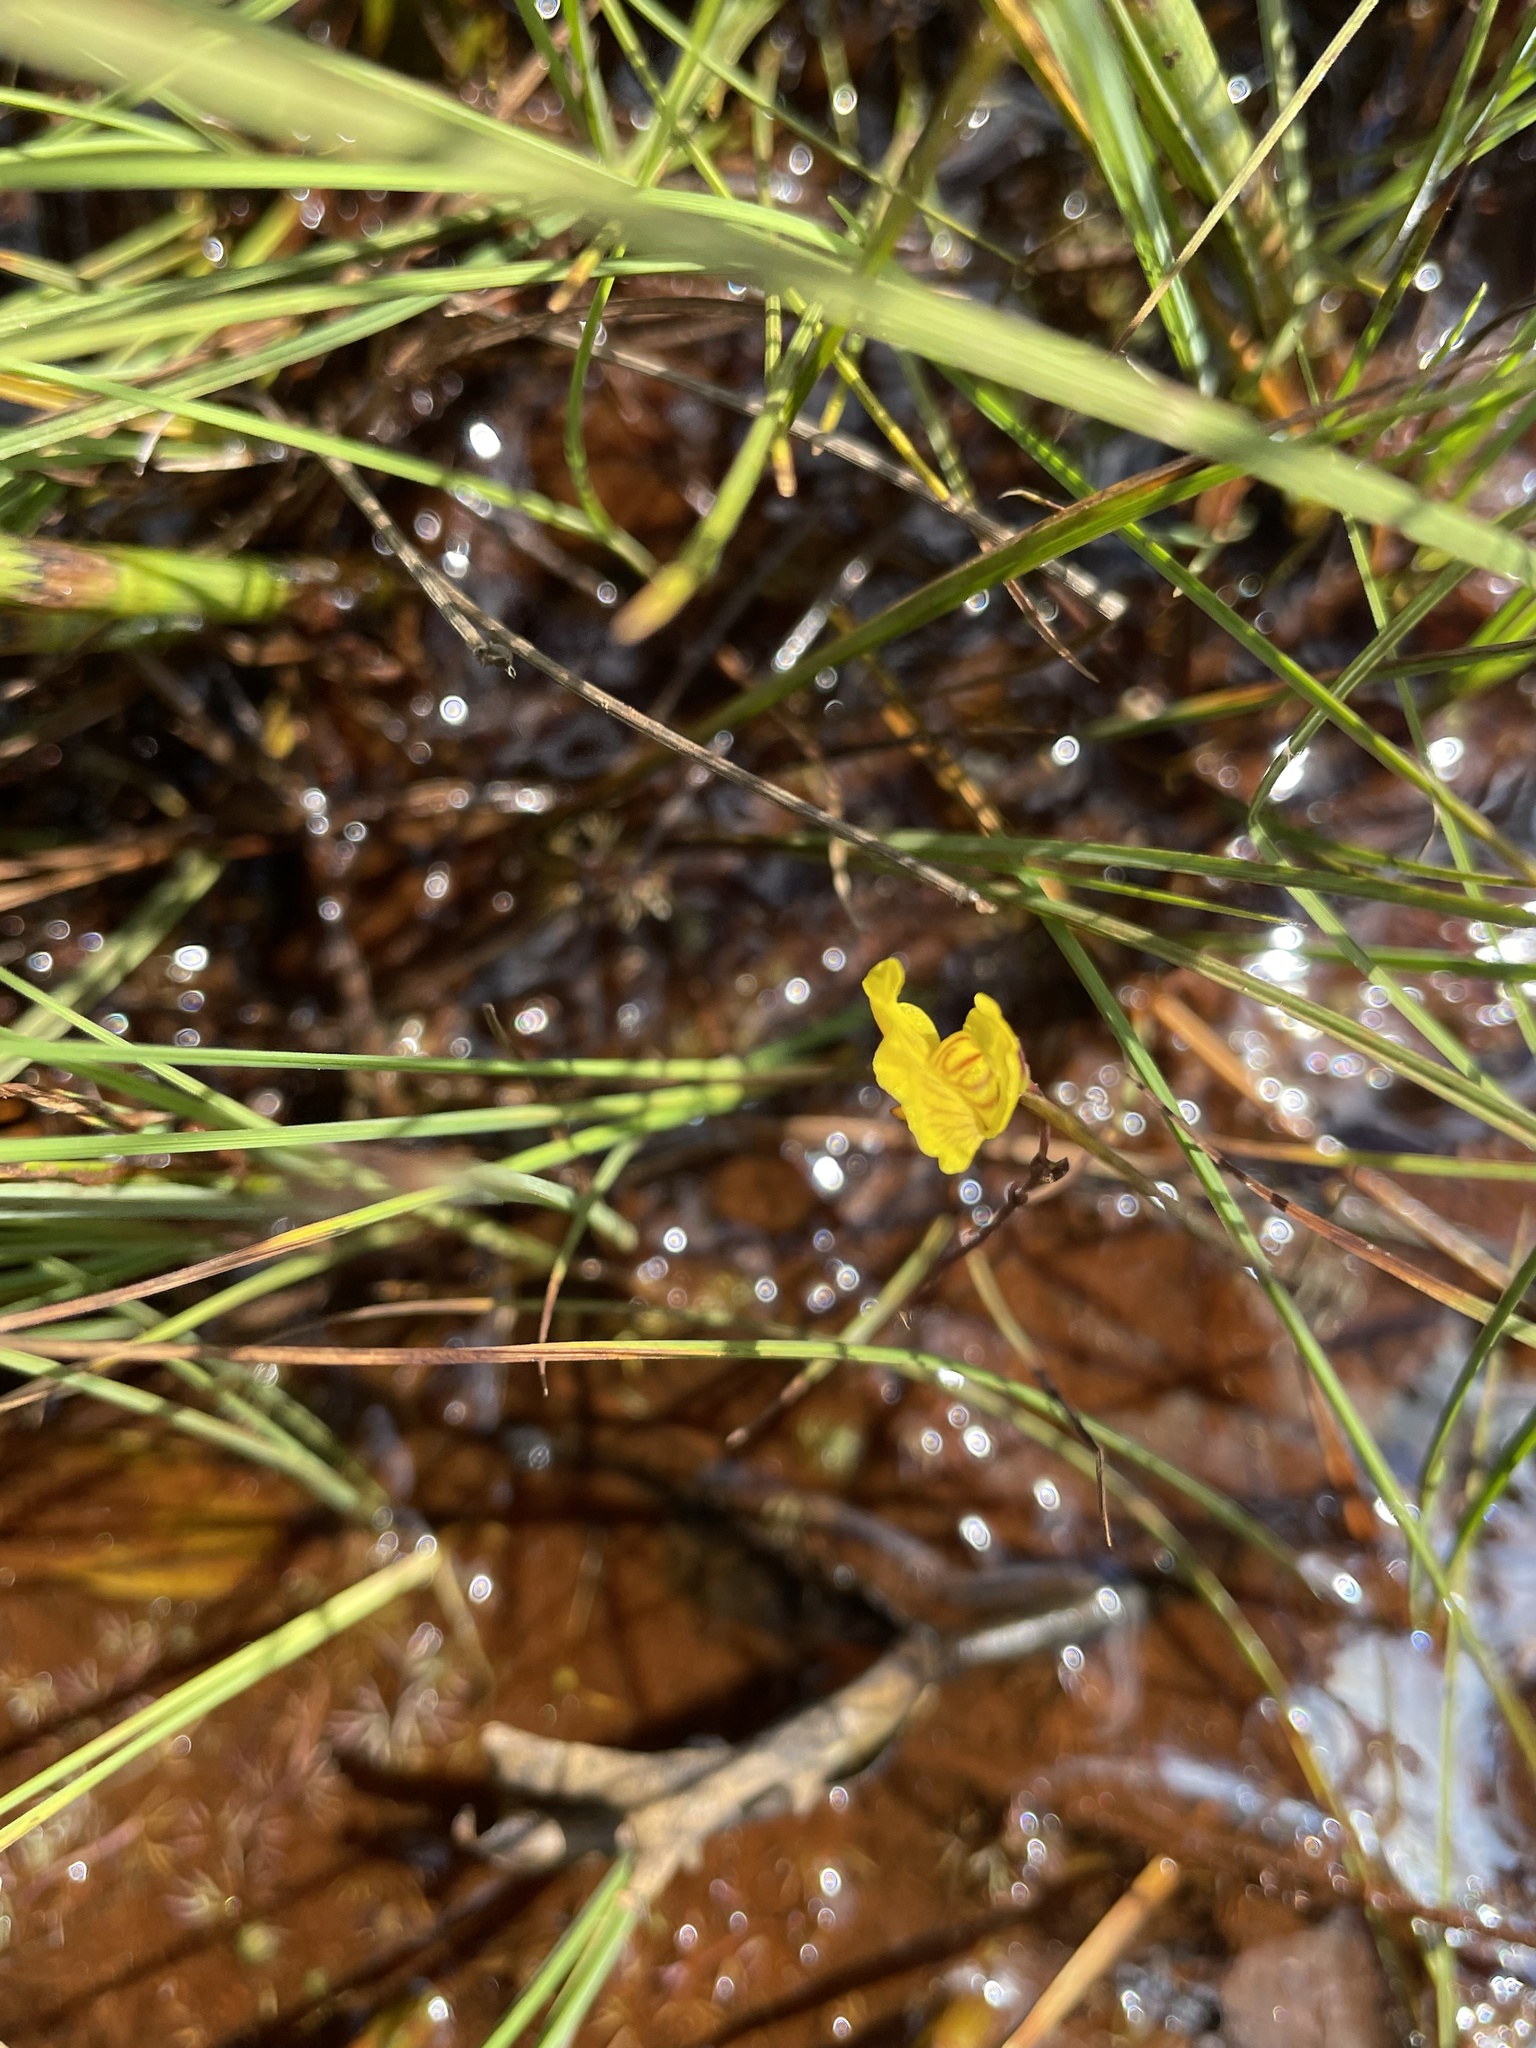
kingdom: Plantae
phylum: Tracheophyta
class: Magnoliopsida
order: Lamiales
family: Lentibulariaceae
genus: Utricularia
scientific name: Utricularia intermedia
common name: Intermediate bladderwort
